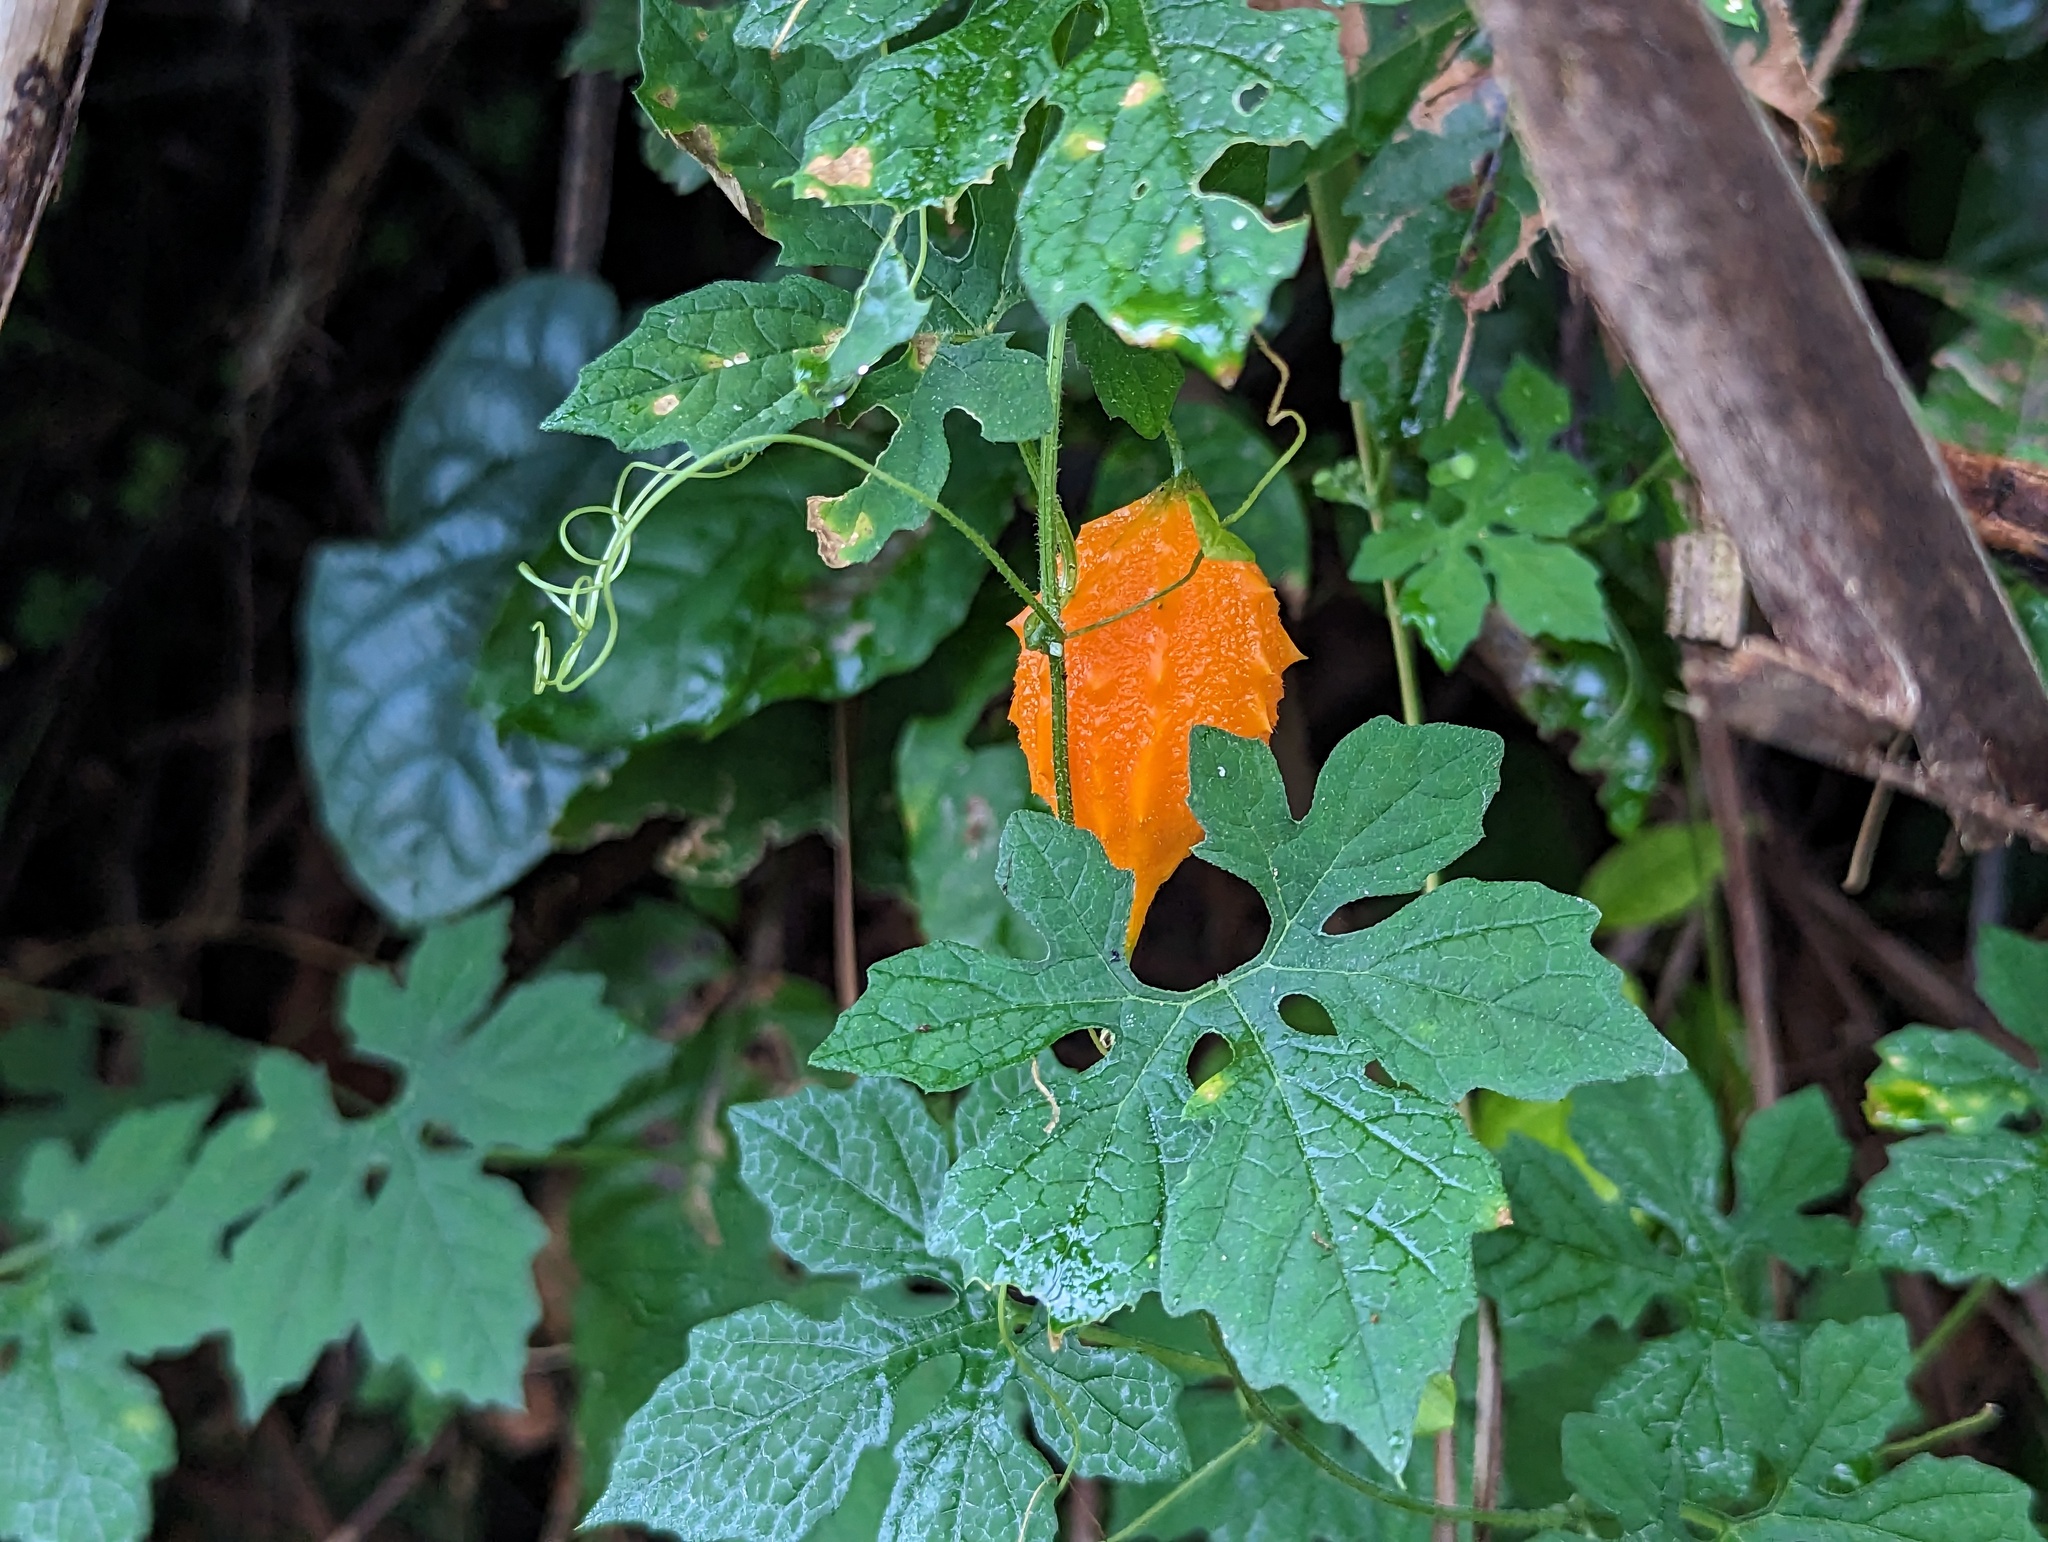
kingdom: Plantae
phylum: Tracheophyta
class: Magnoliopsida
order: Cucurbitales
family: Cucurbitaceae
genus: Momordica
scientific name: Momordica charantia
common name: Balsampear
